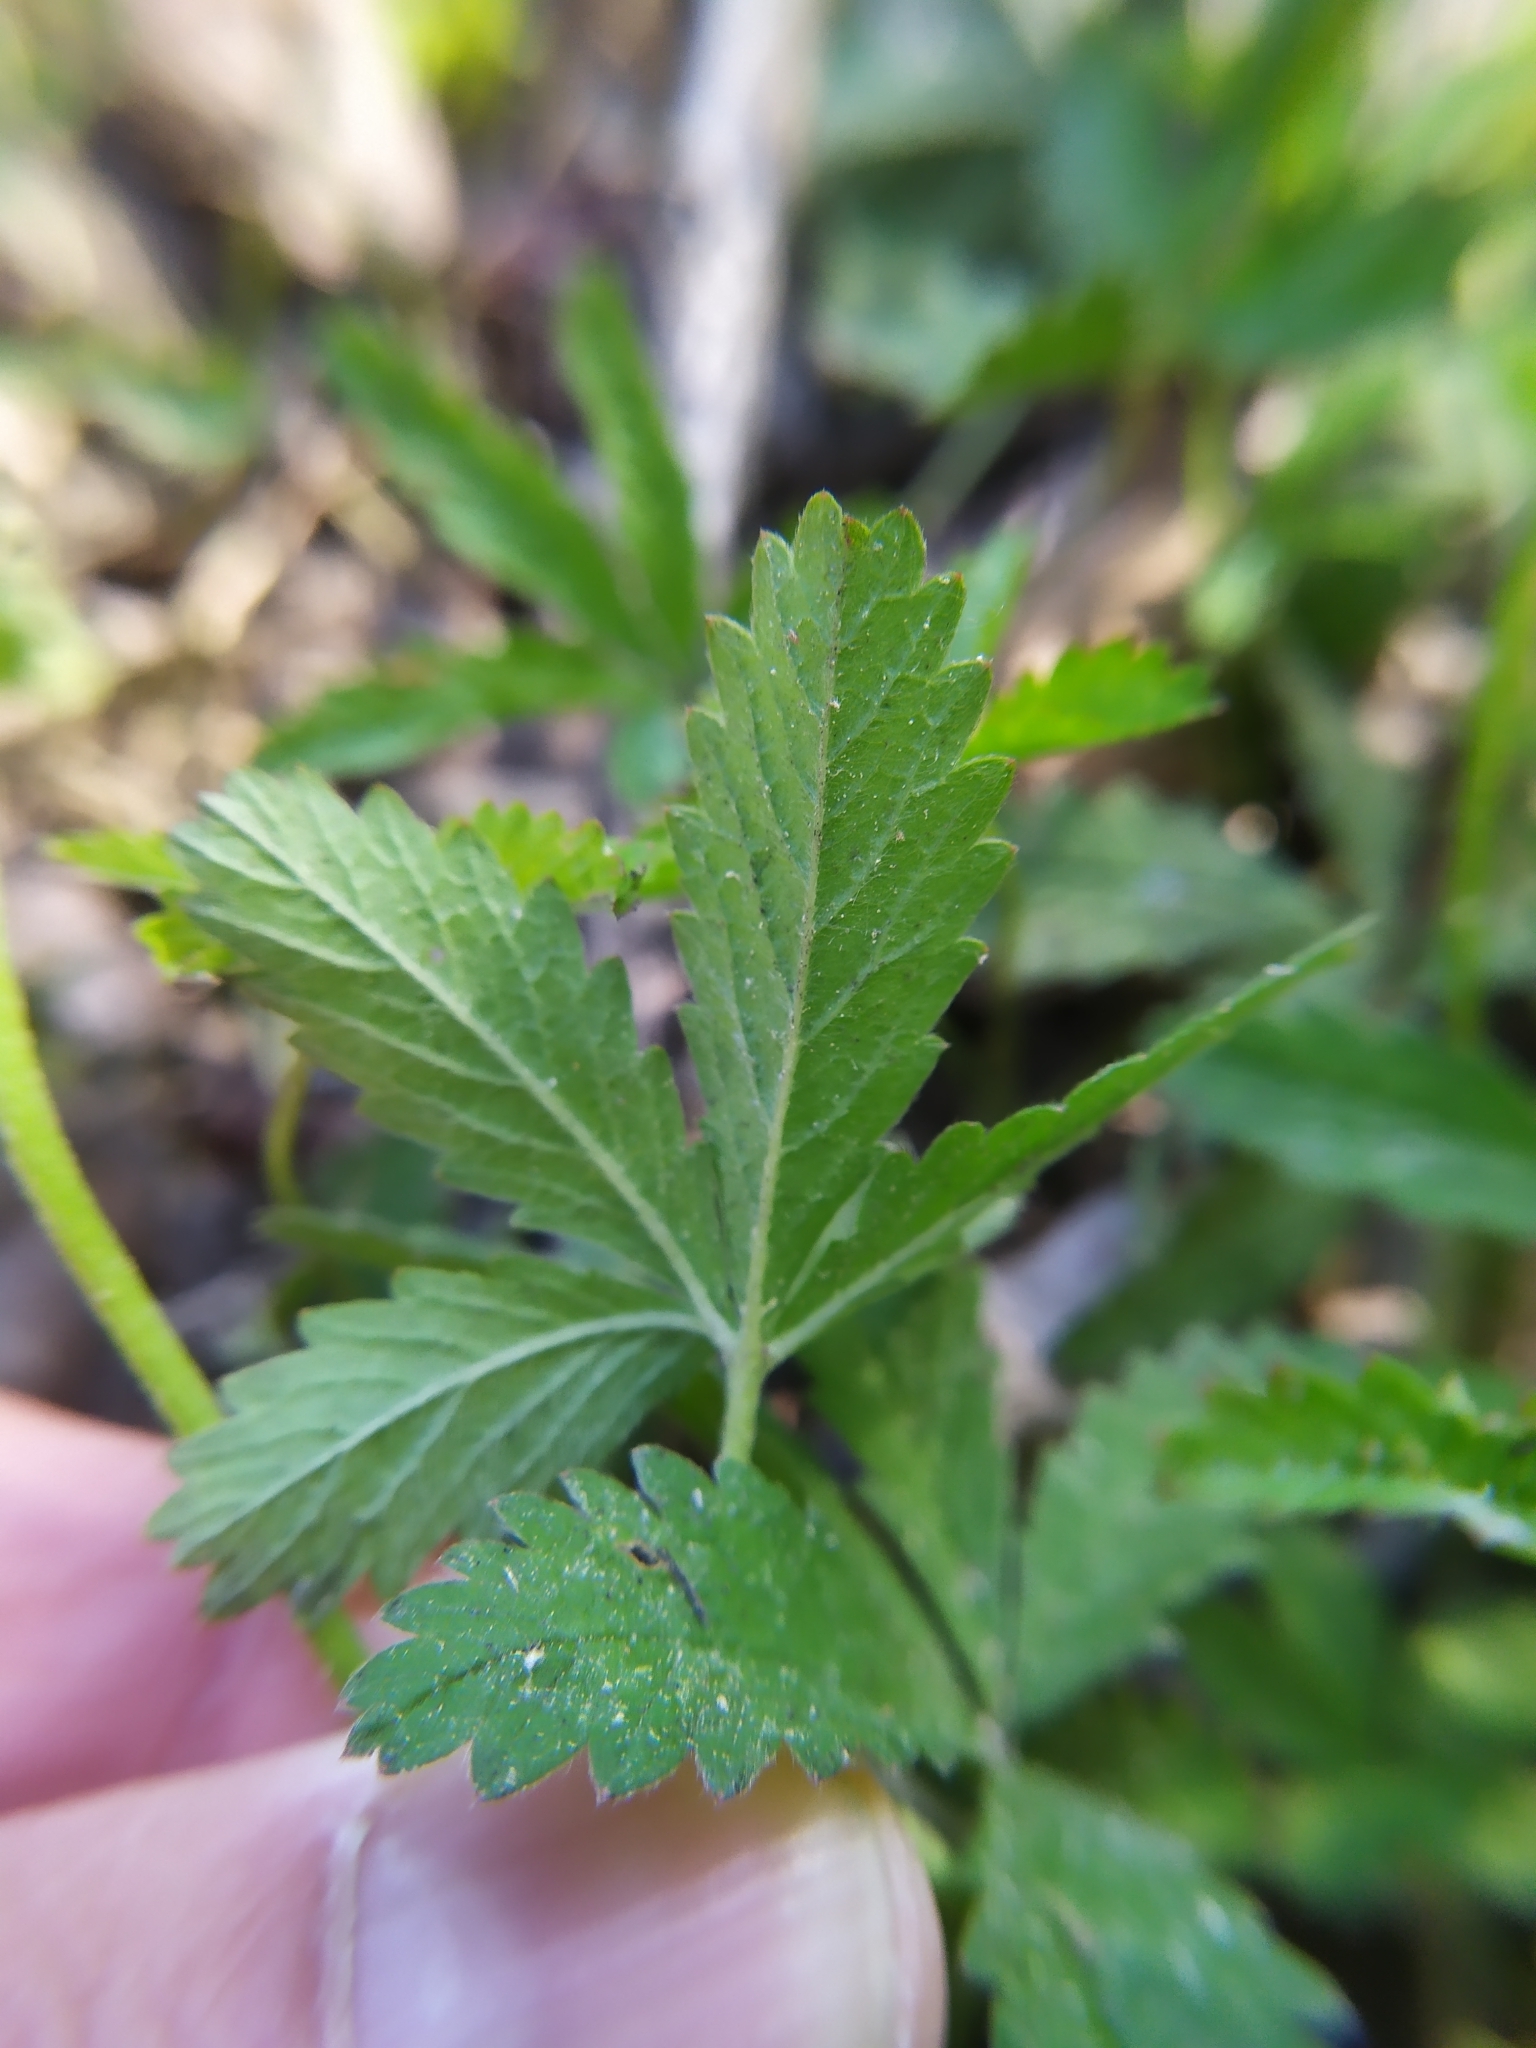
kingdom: Plantae
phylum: Tracheophyta
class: Magnoliopsida
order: Rosales
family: Rosaceae
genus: Potentilla
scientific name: Potentilla reptans
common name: Creeping cinquefoil
